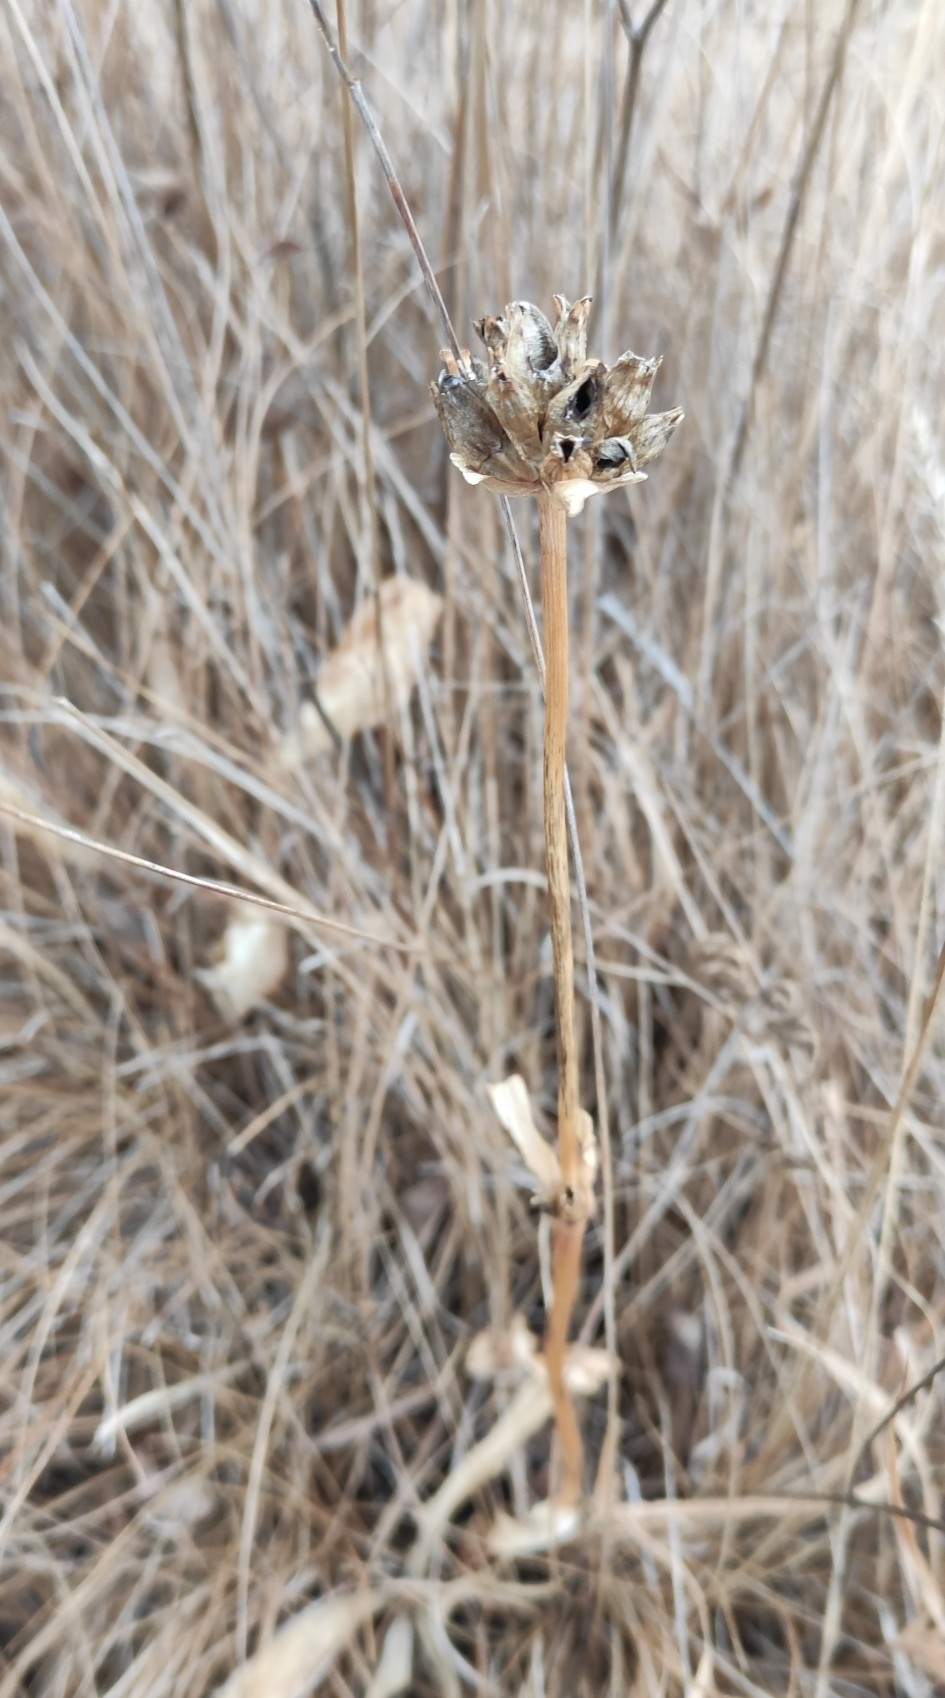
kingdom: Plantae
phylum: Tracheophyta
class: Magnoliopsida
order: Gentianales
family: Gentianaceae
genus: Gentiana
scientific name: Gentiana macrophylla
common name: Large-leaf gentian
